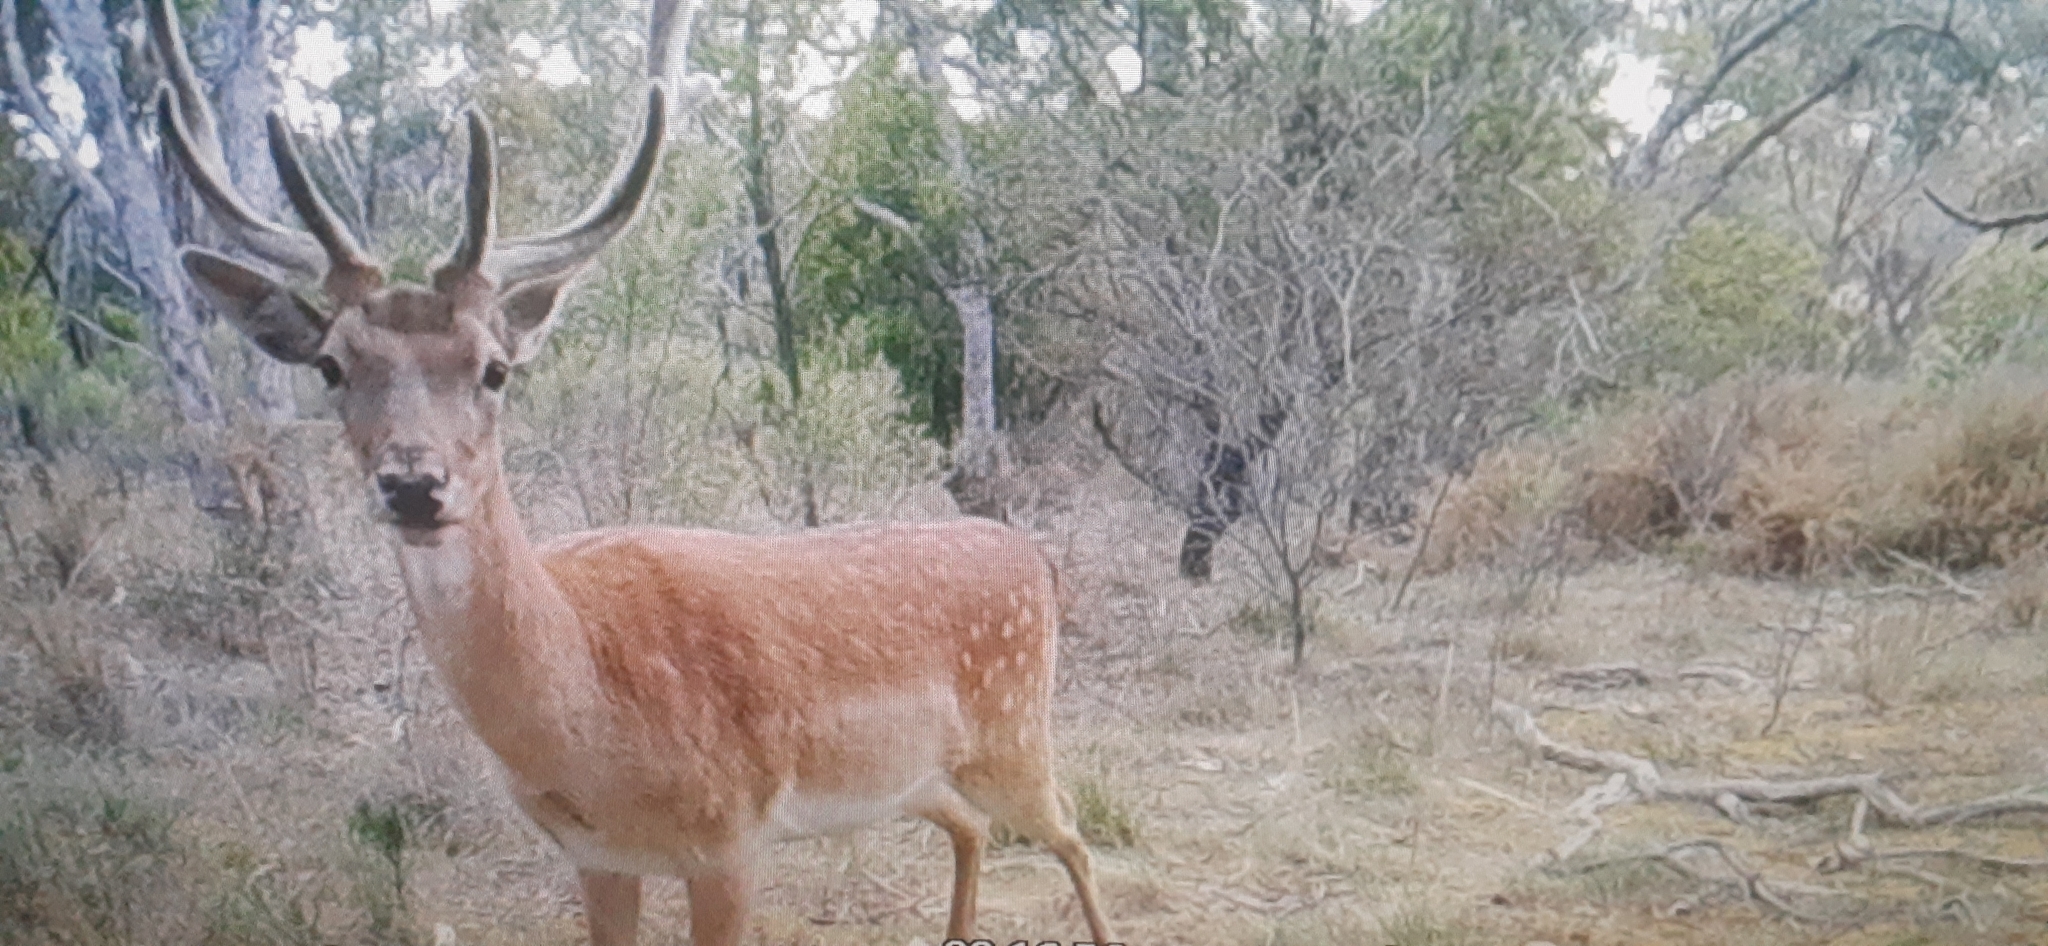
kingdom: Animalia
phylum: Chordata
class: Mammalia
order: Artiodactyla
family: Cervidae
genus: Dama
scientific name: Dama dama
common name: Fallow deer
